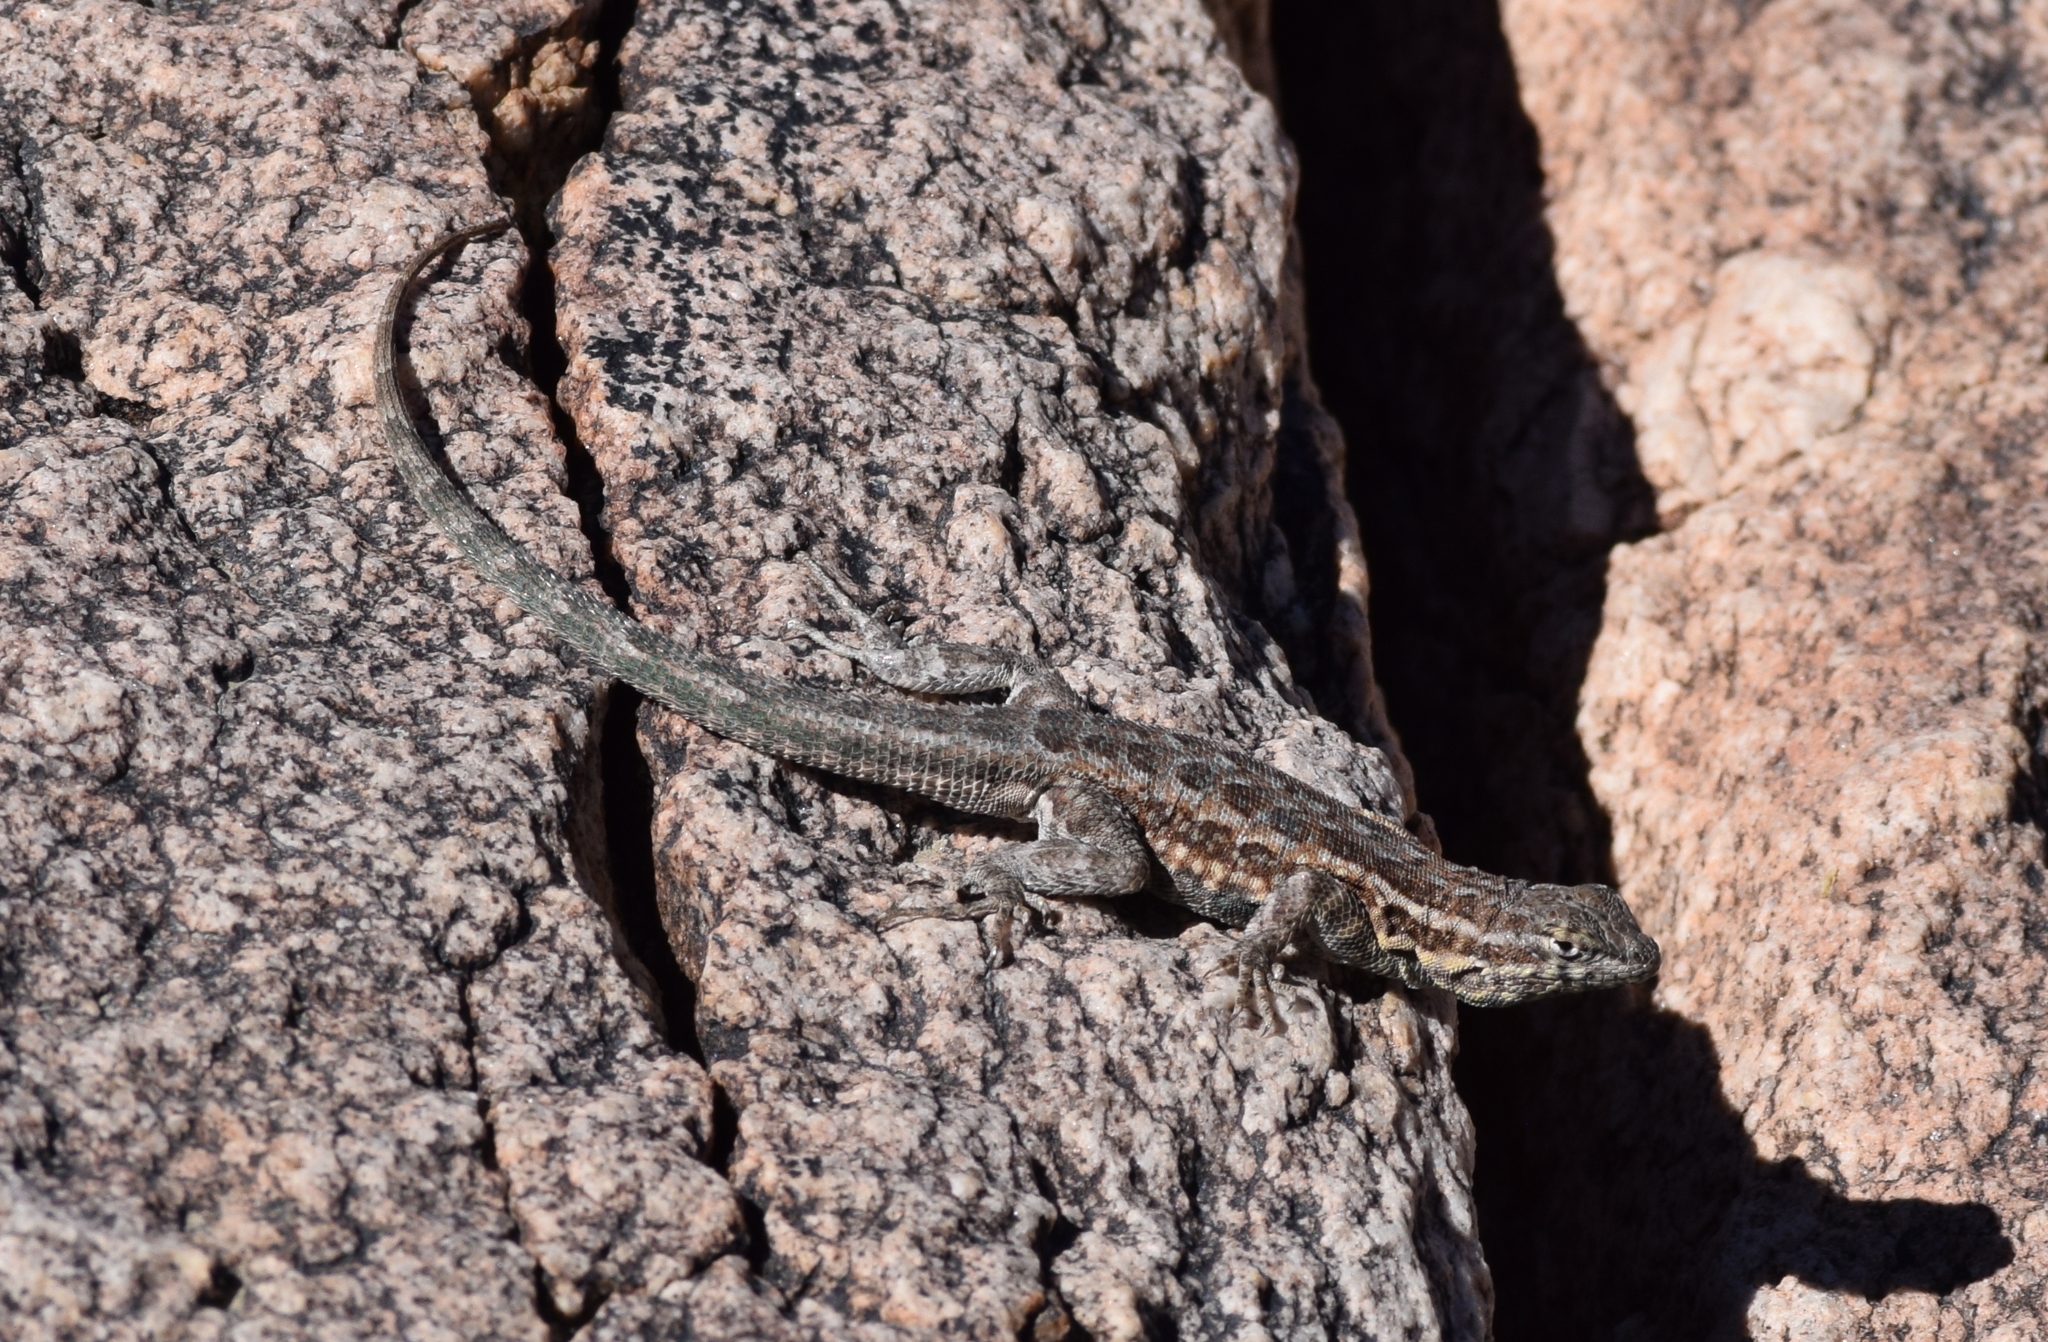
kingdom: Animalia
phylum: Chordata
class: Squamata
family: Phrynosomatidae
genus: Uta
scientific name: Uta stansburiana
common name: Side-blotched lizard
